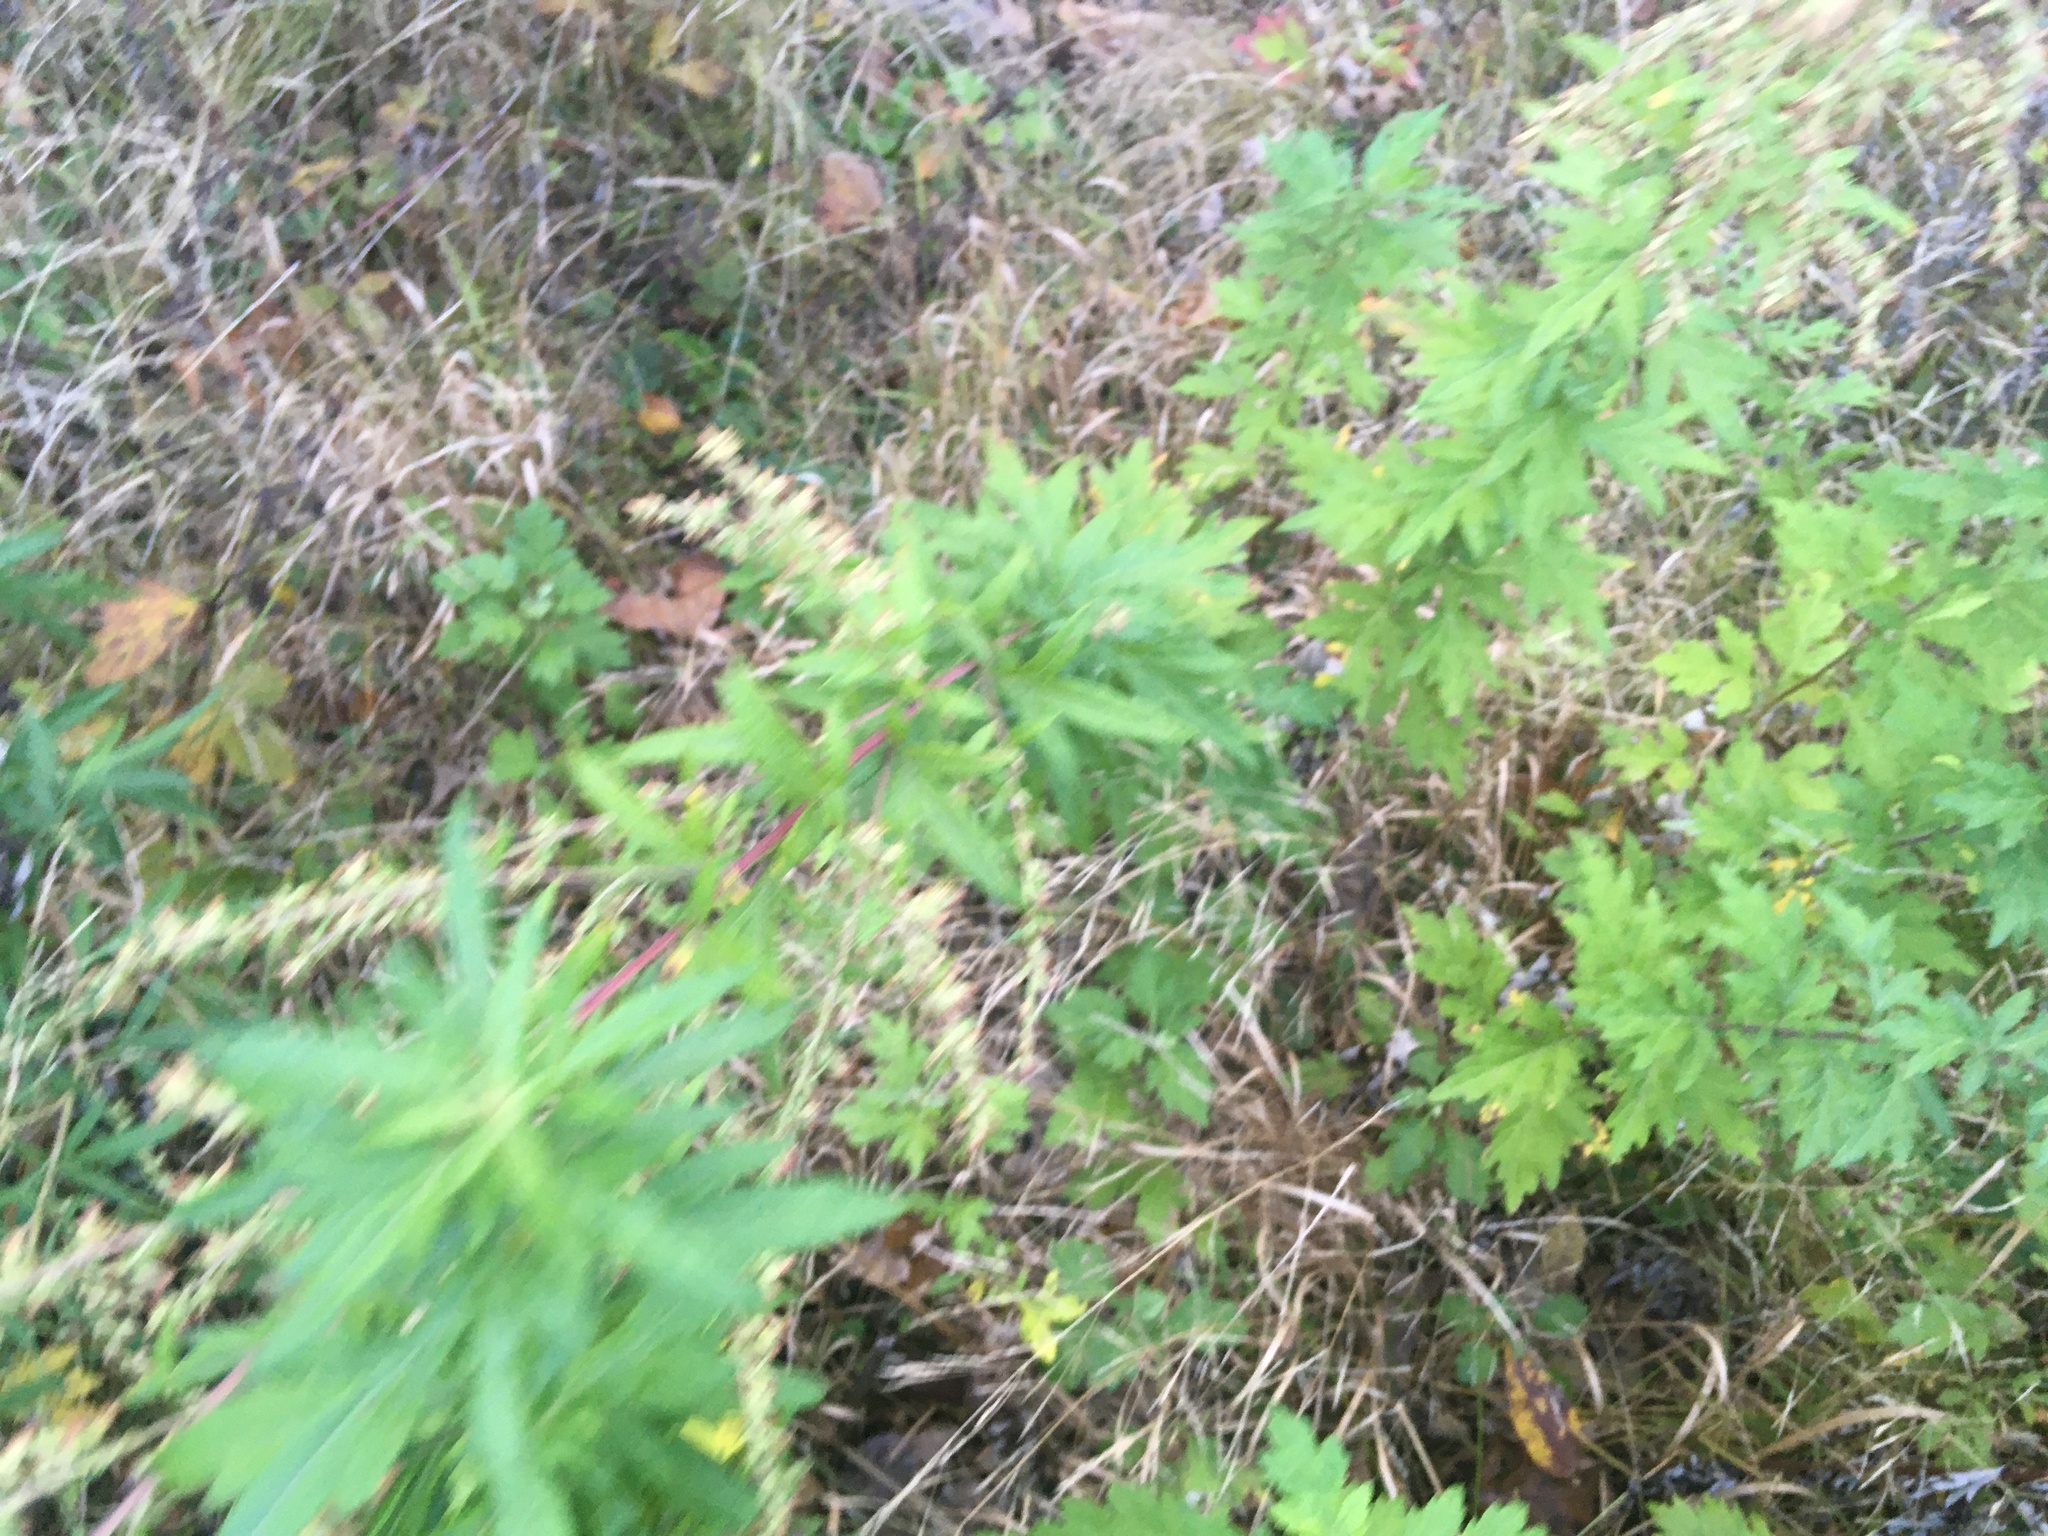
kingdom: Plantae
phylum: Tracheophyta
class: Magnoliopsida
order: Asterales
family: Asteraceae
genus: Artemisia
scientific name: Artemisia vulgaris
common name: Mugwort
